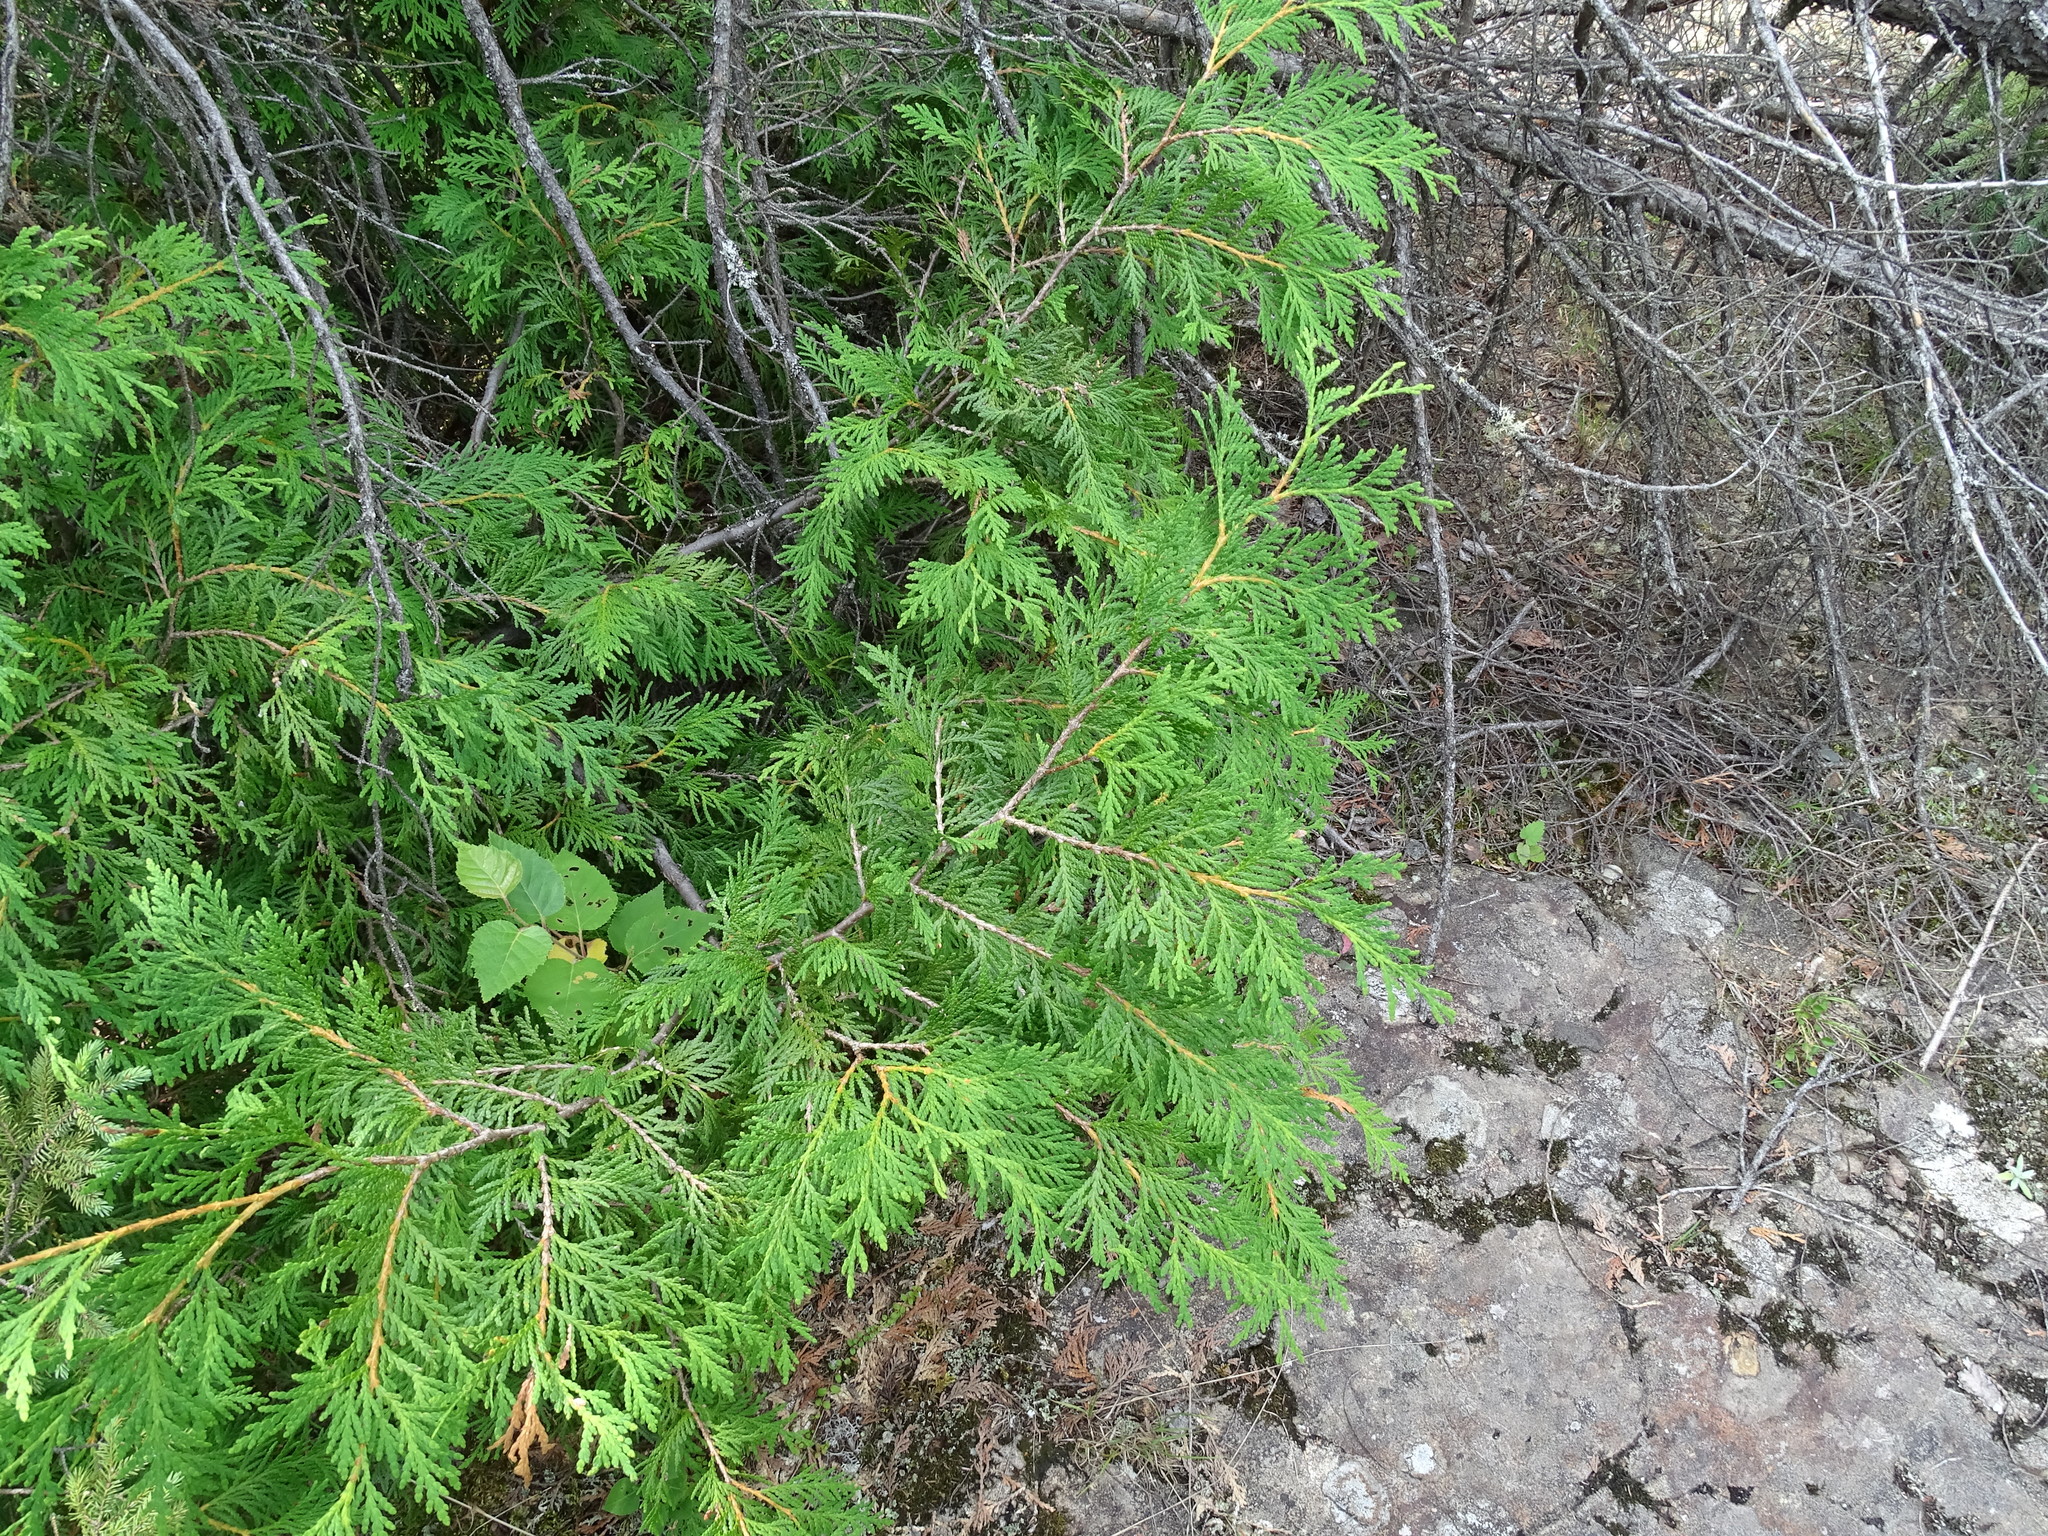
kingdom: Plantae
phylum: Tracheophyta
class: Pinopsida
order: Pinales
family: Cupressaceae
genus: Thuja
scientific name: Thuja occidentalis
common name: Northern white-cedar
